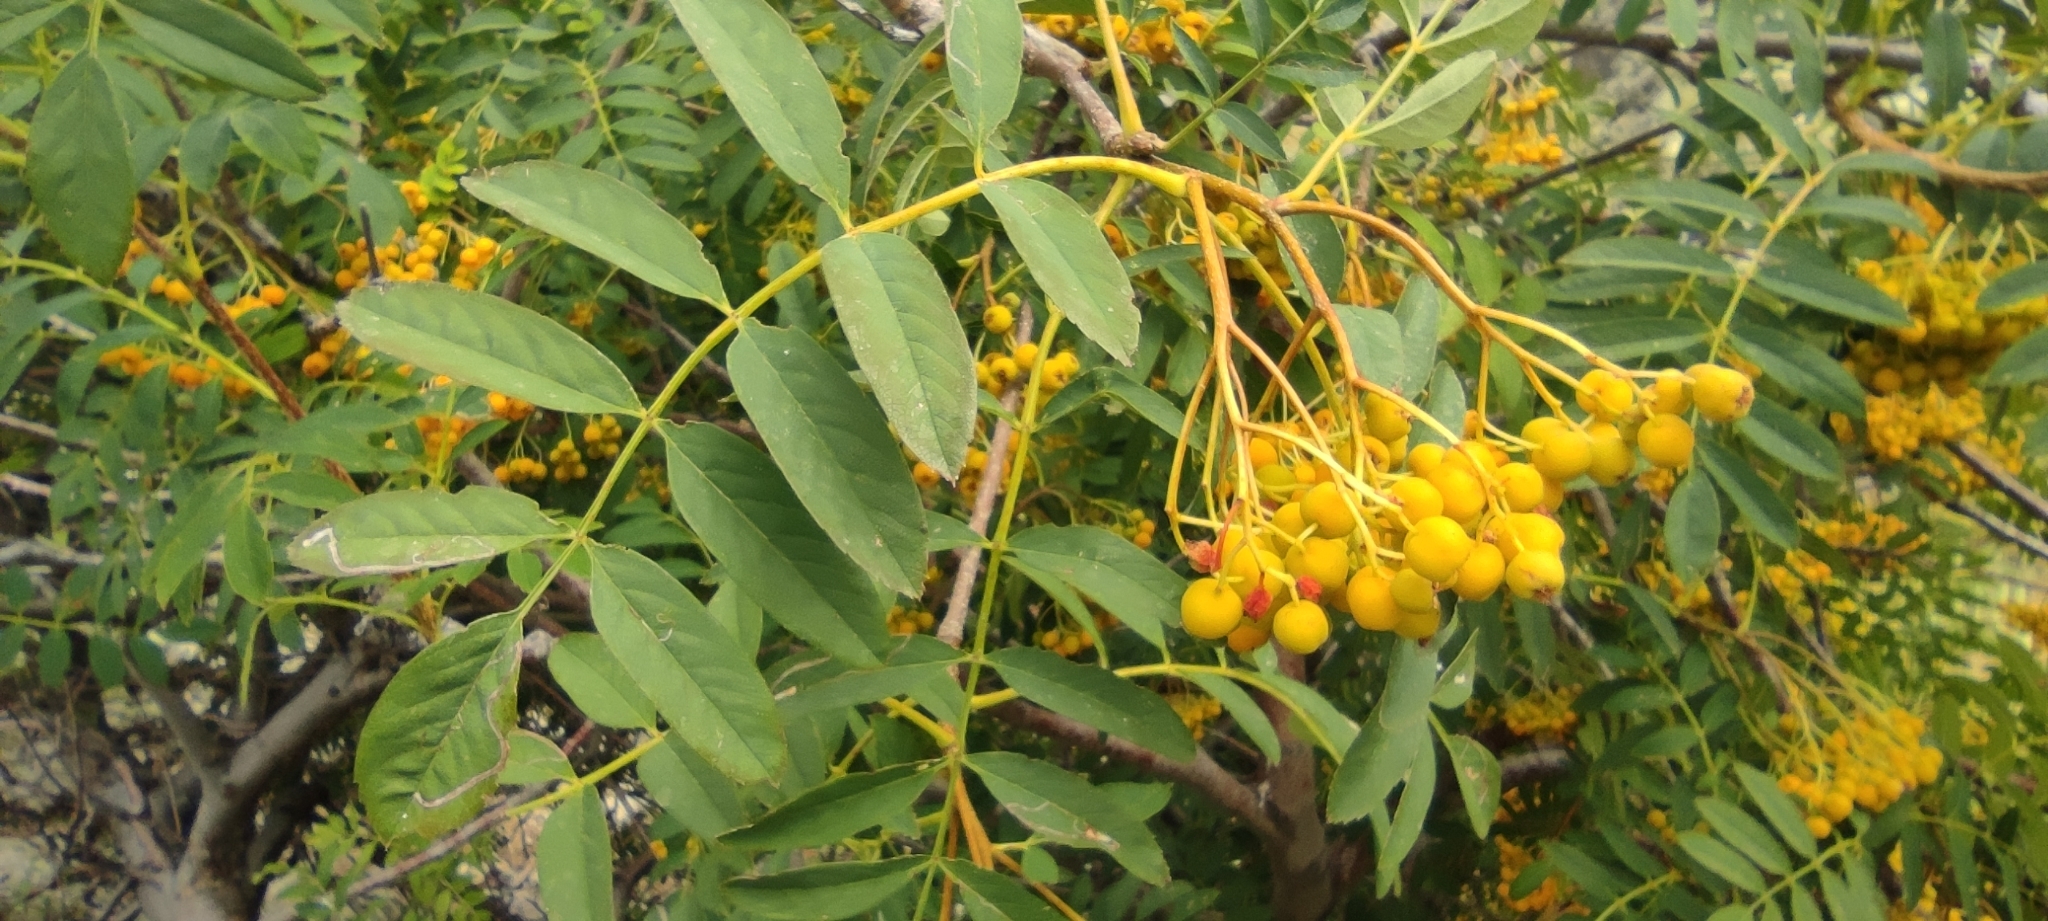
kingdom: Plantae
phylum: Tracheophyta
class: Magnoliopsida
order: Rosales
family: Rosaceae
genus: Sorbus
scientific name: Sorbus aucuparia
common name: Rowan
